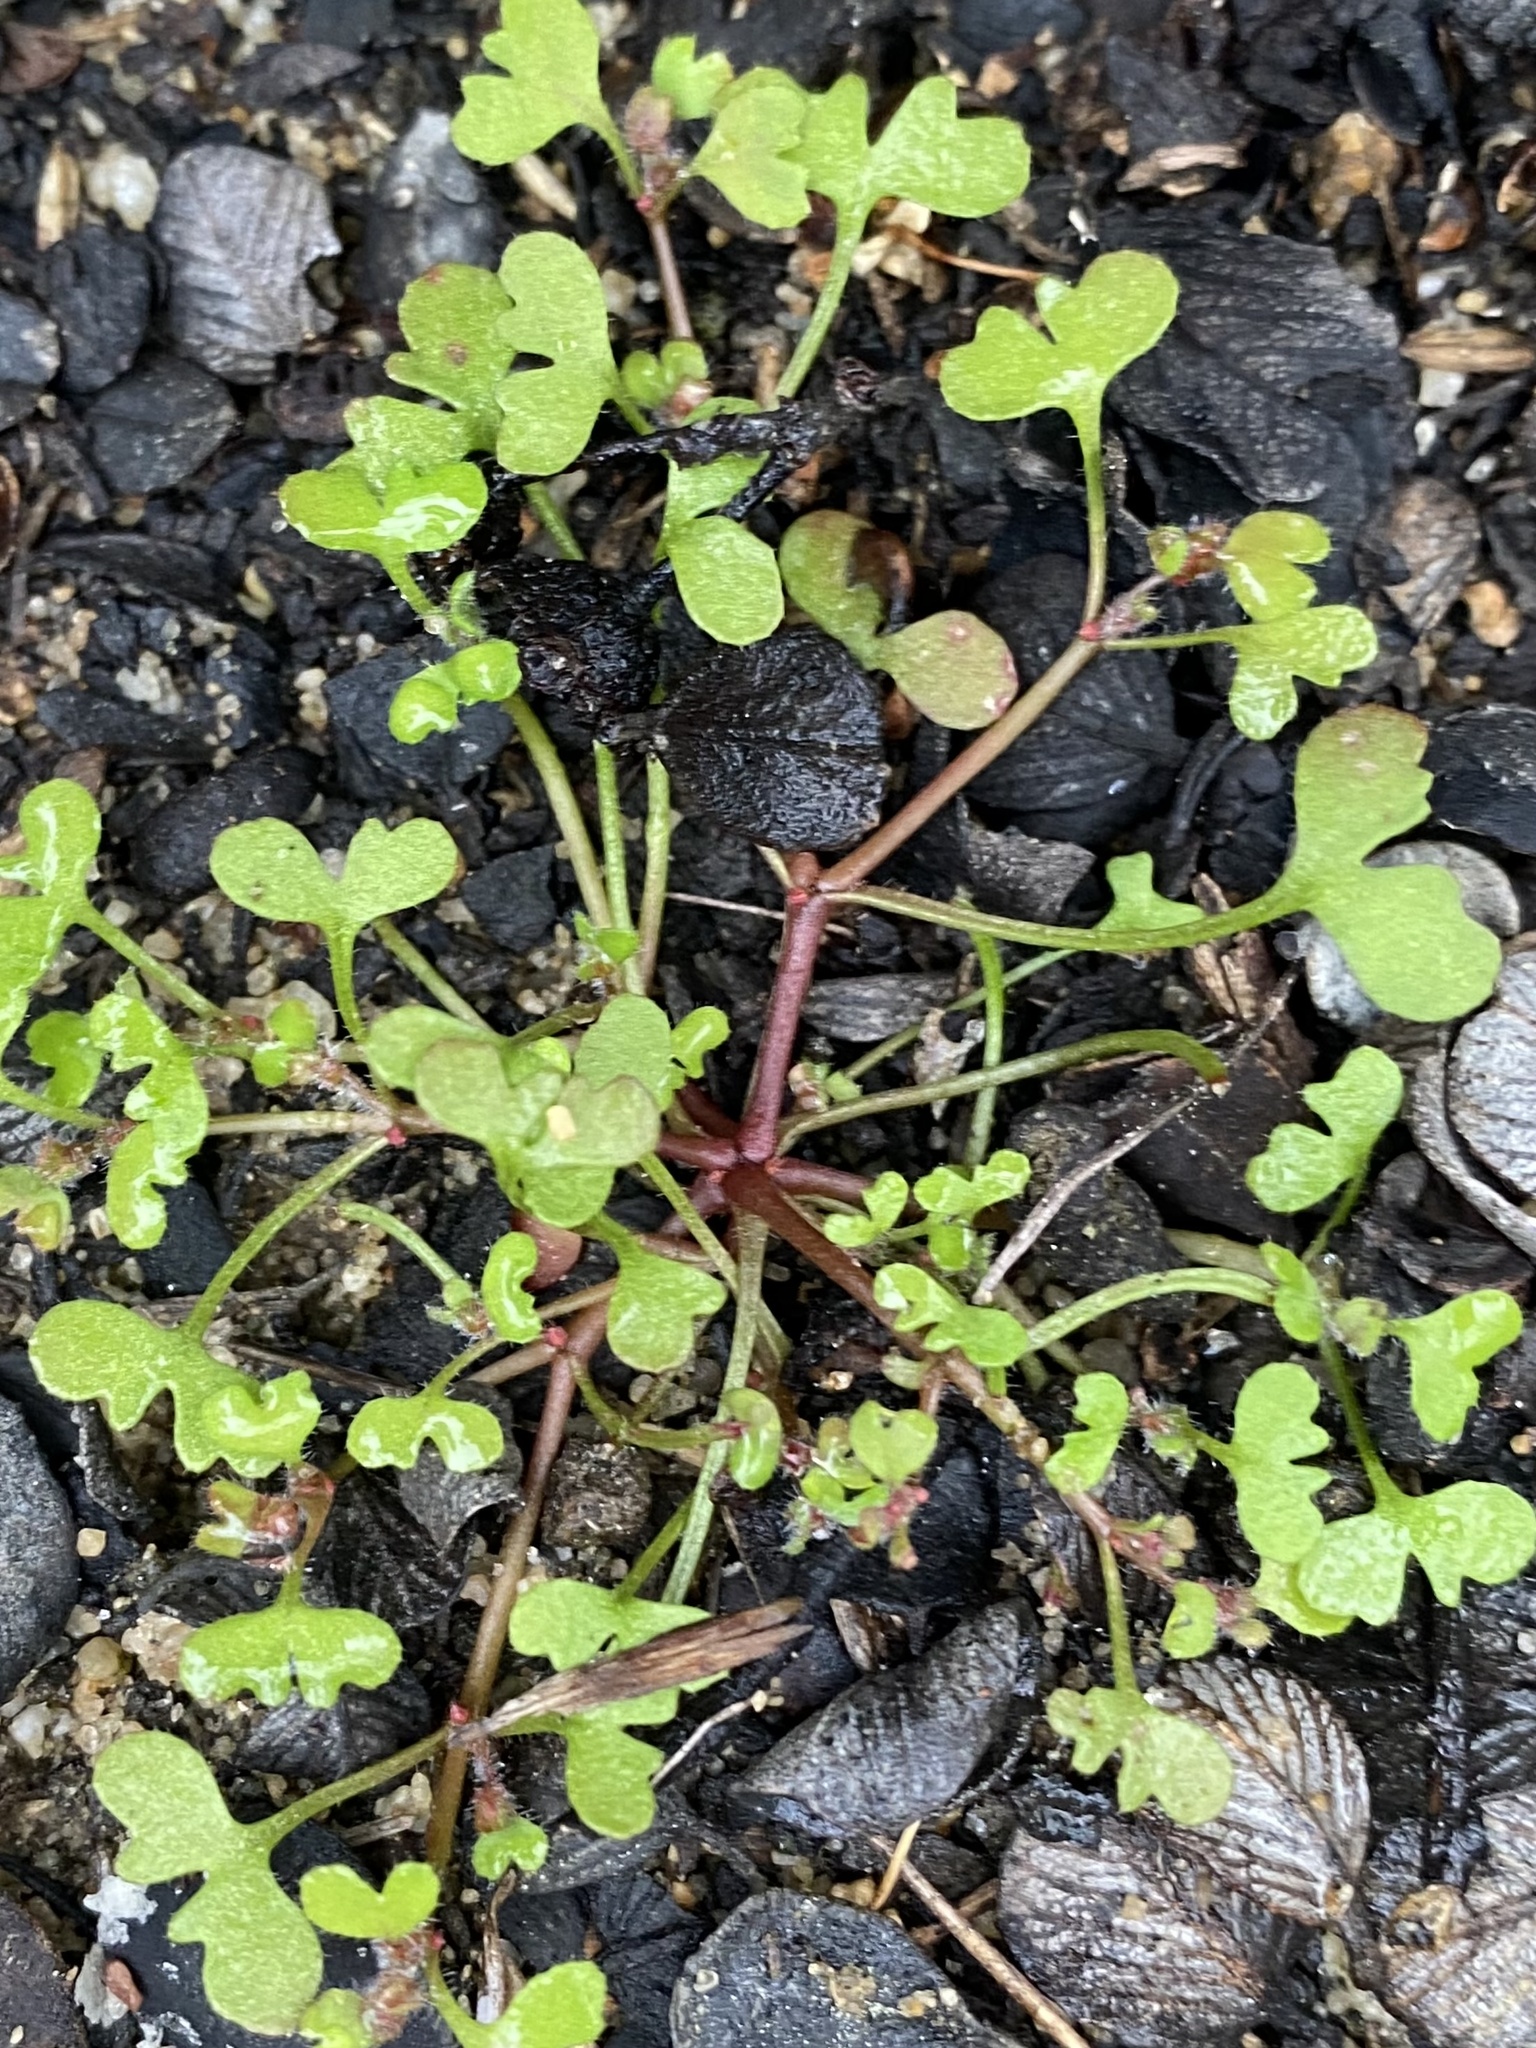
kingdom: Plantae
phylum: Tracheophyta
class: Magnoliopsida
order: Caryophyllales
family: Polygonaceae
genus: Pterostegia
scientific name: Pterostegia drymarioides
